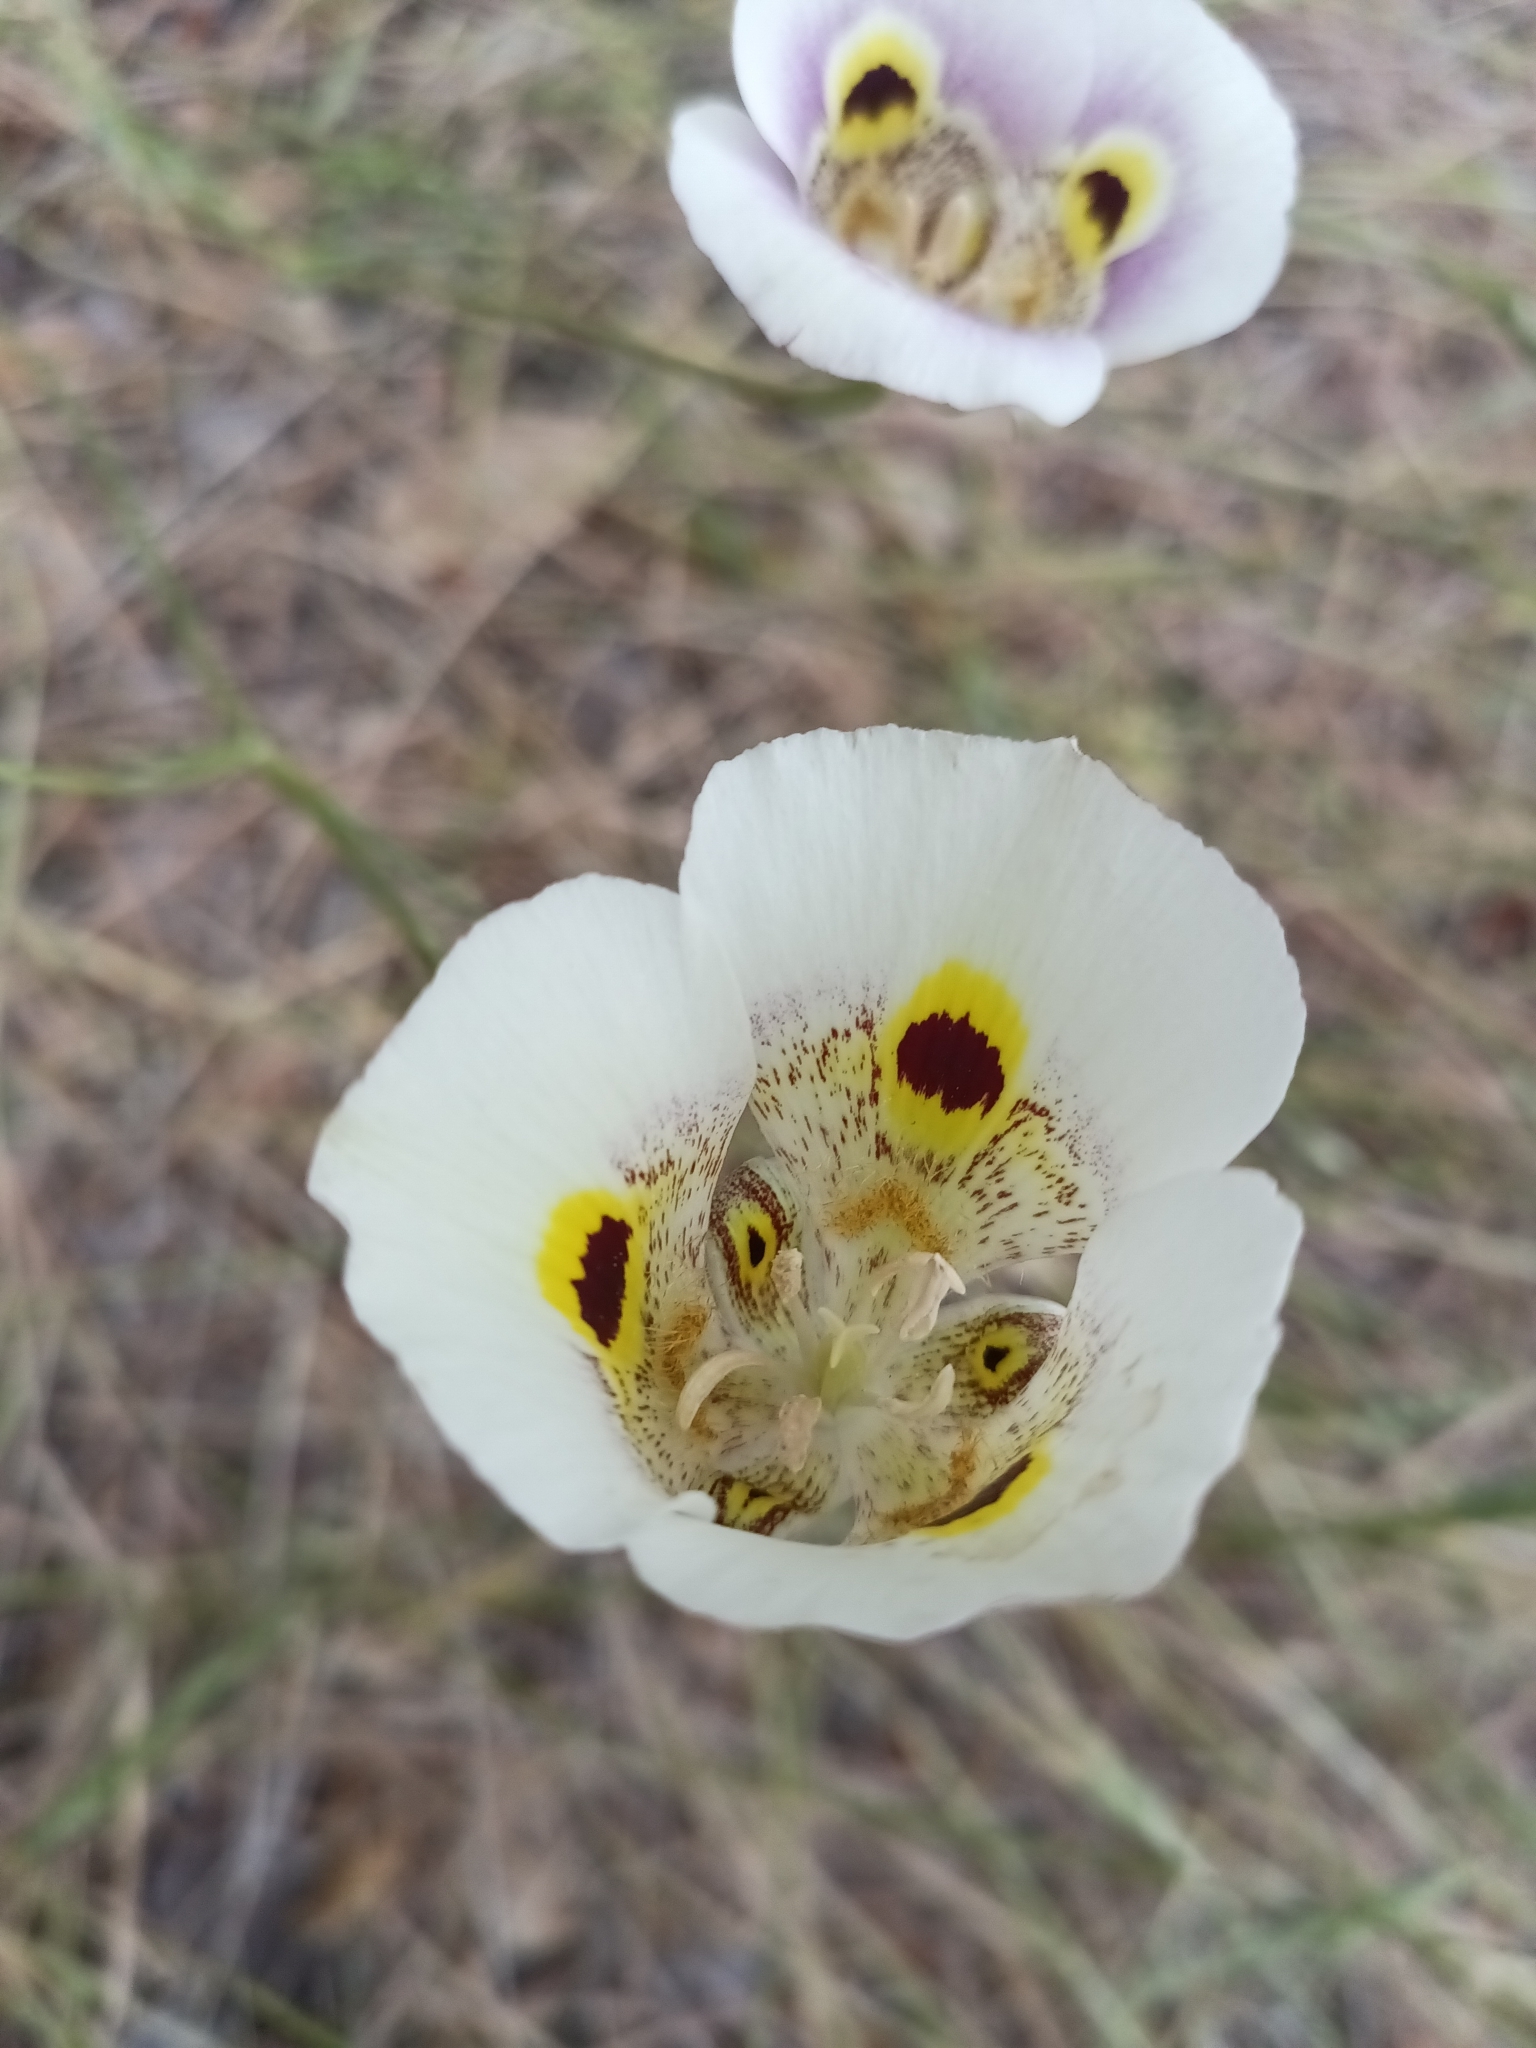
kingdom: Plantae
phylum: Tracheophyta
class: Liliopsida
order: Liliales
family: Liliaceae
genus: Calochortus
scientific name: Calochortus superbus
